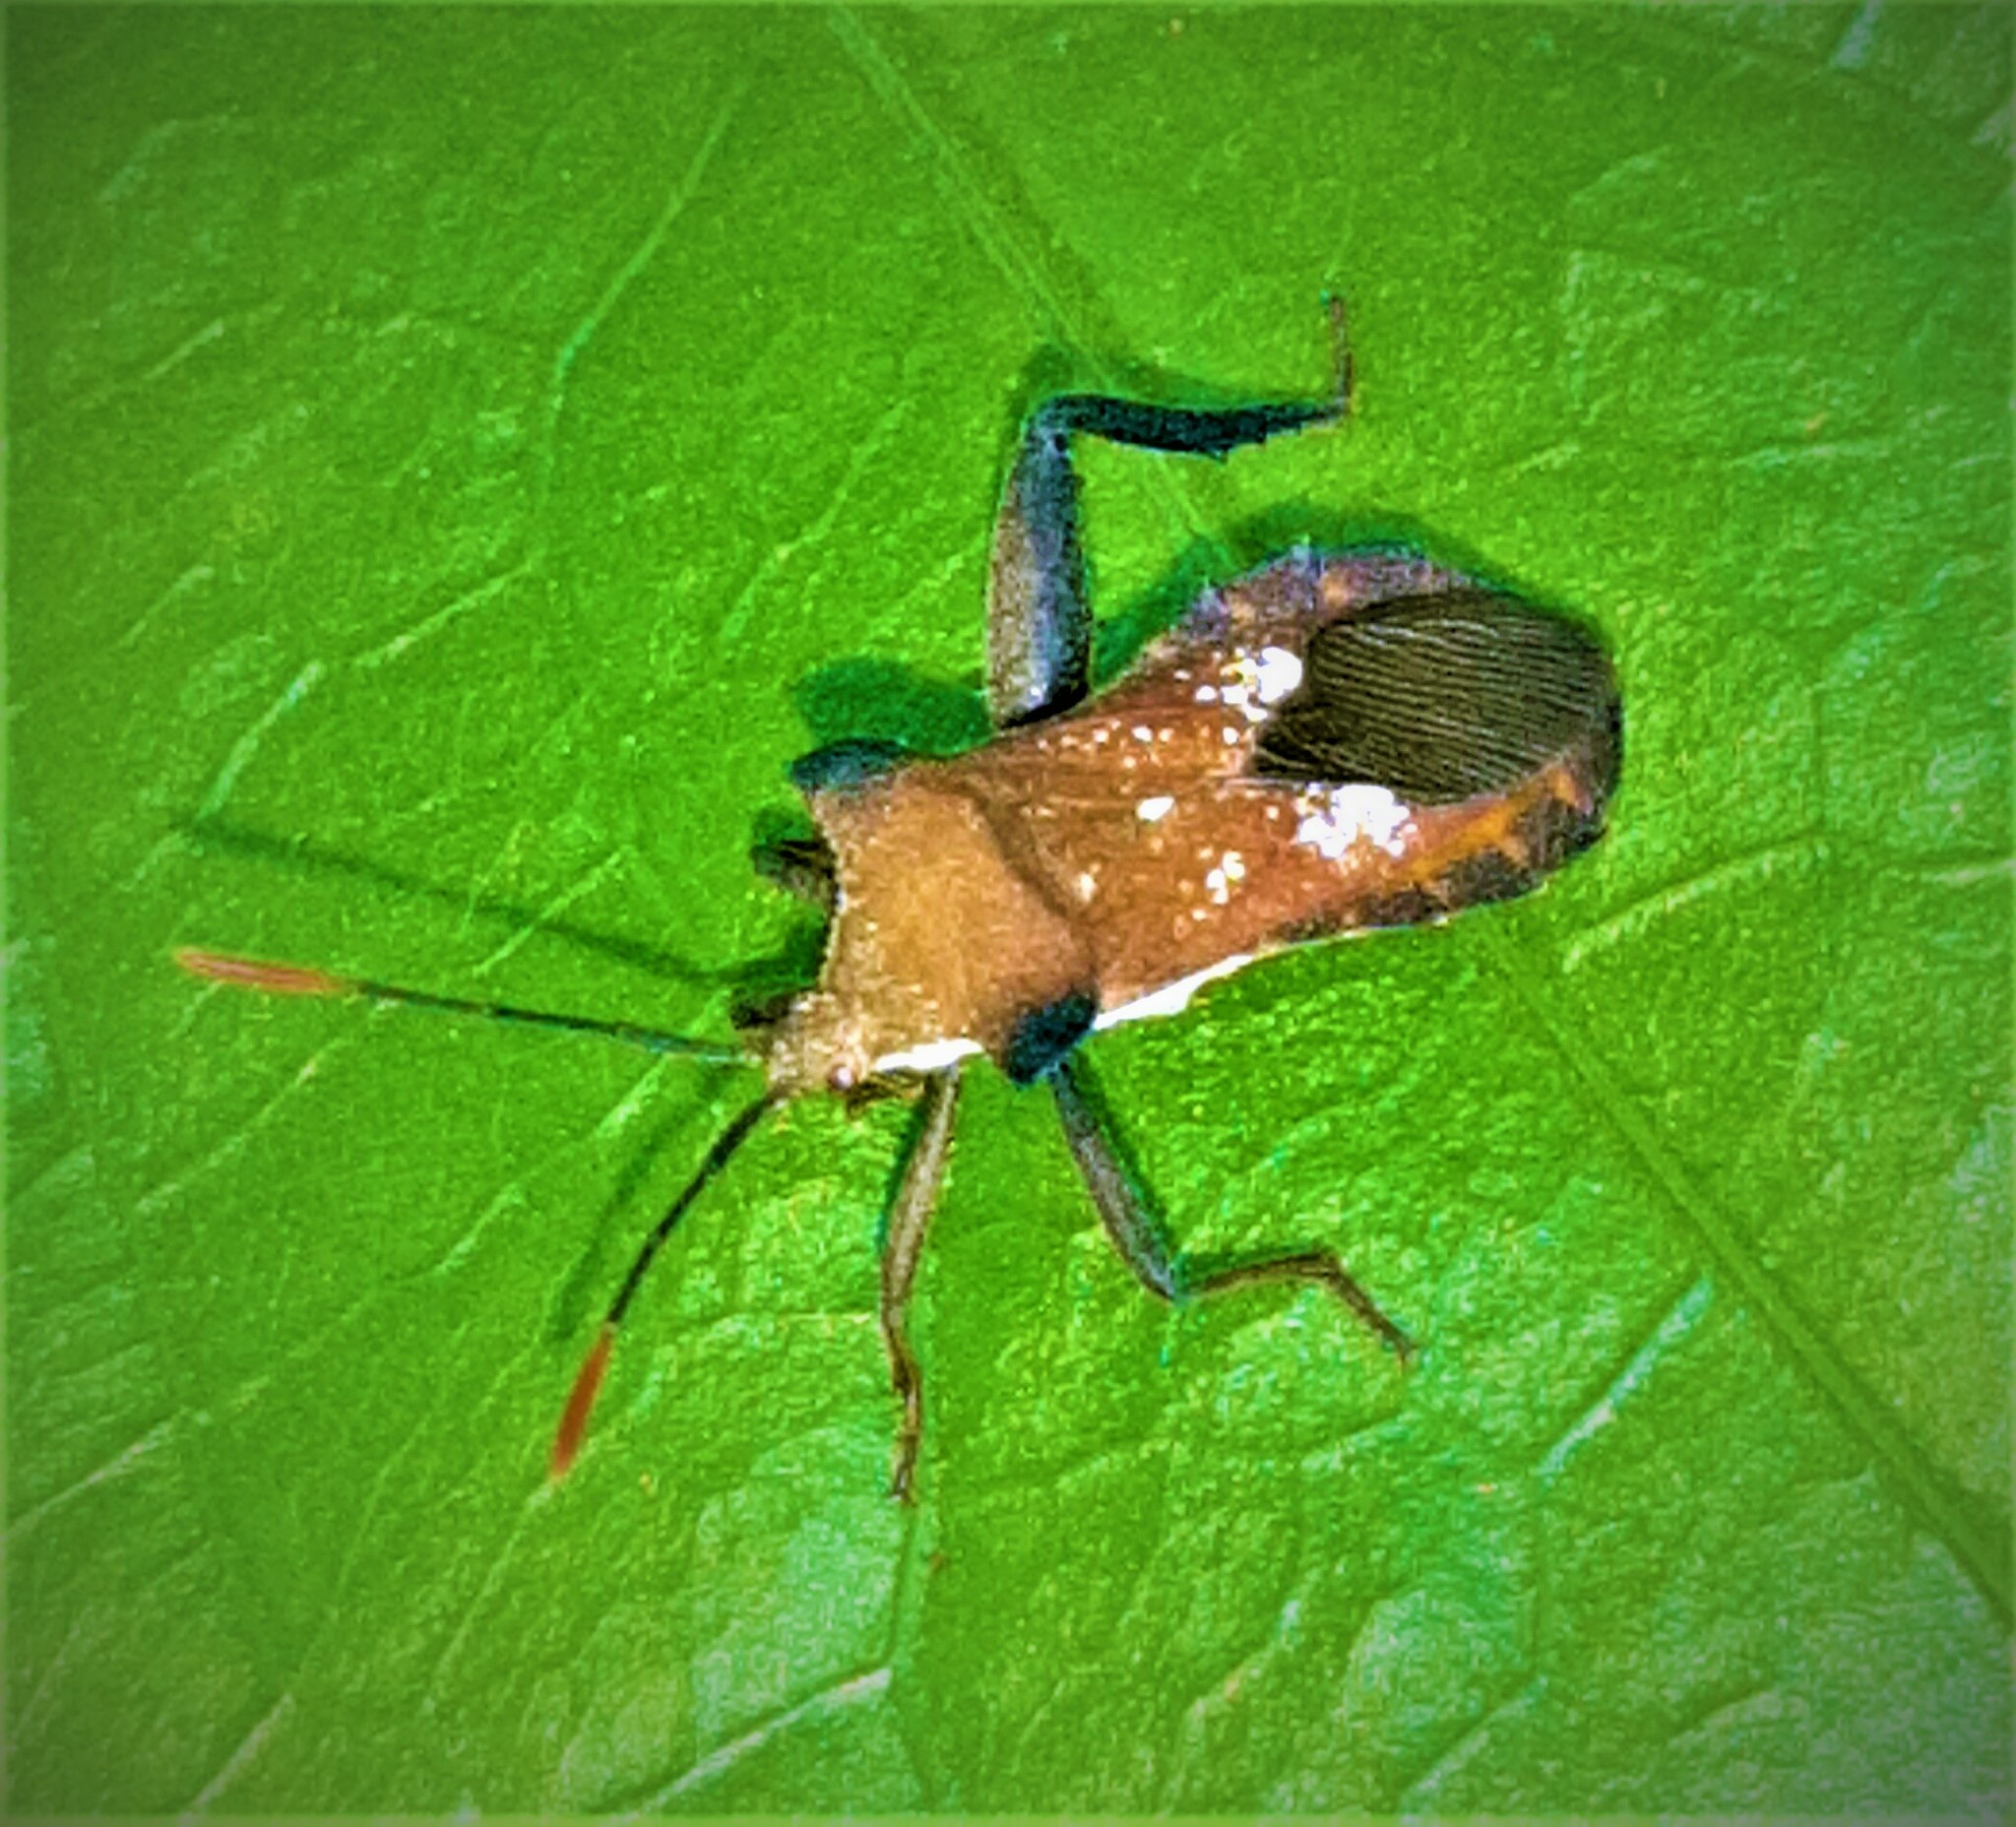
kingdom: Animalia
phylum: Arthropoda
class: Insecta
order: Hemiptera
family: Coreidae
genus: Mozena
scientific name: Mozena lurida
